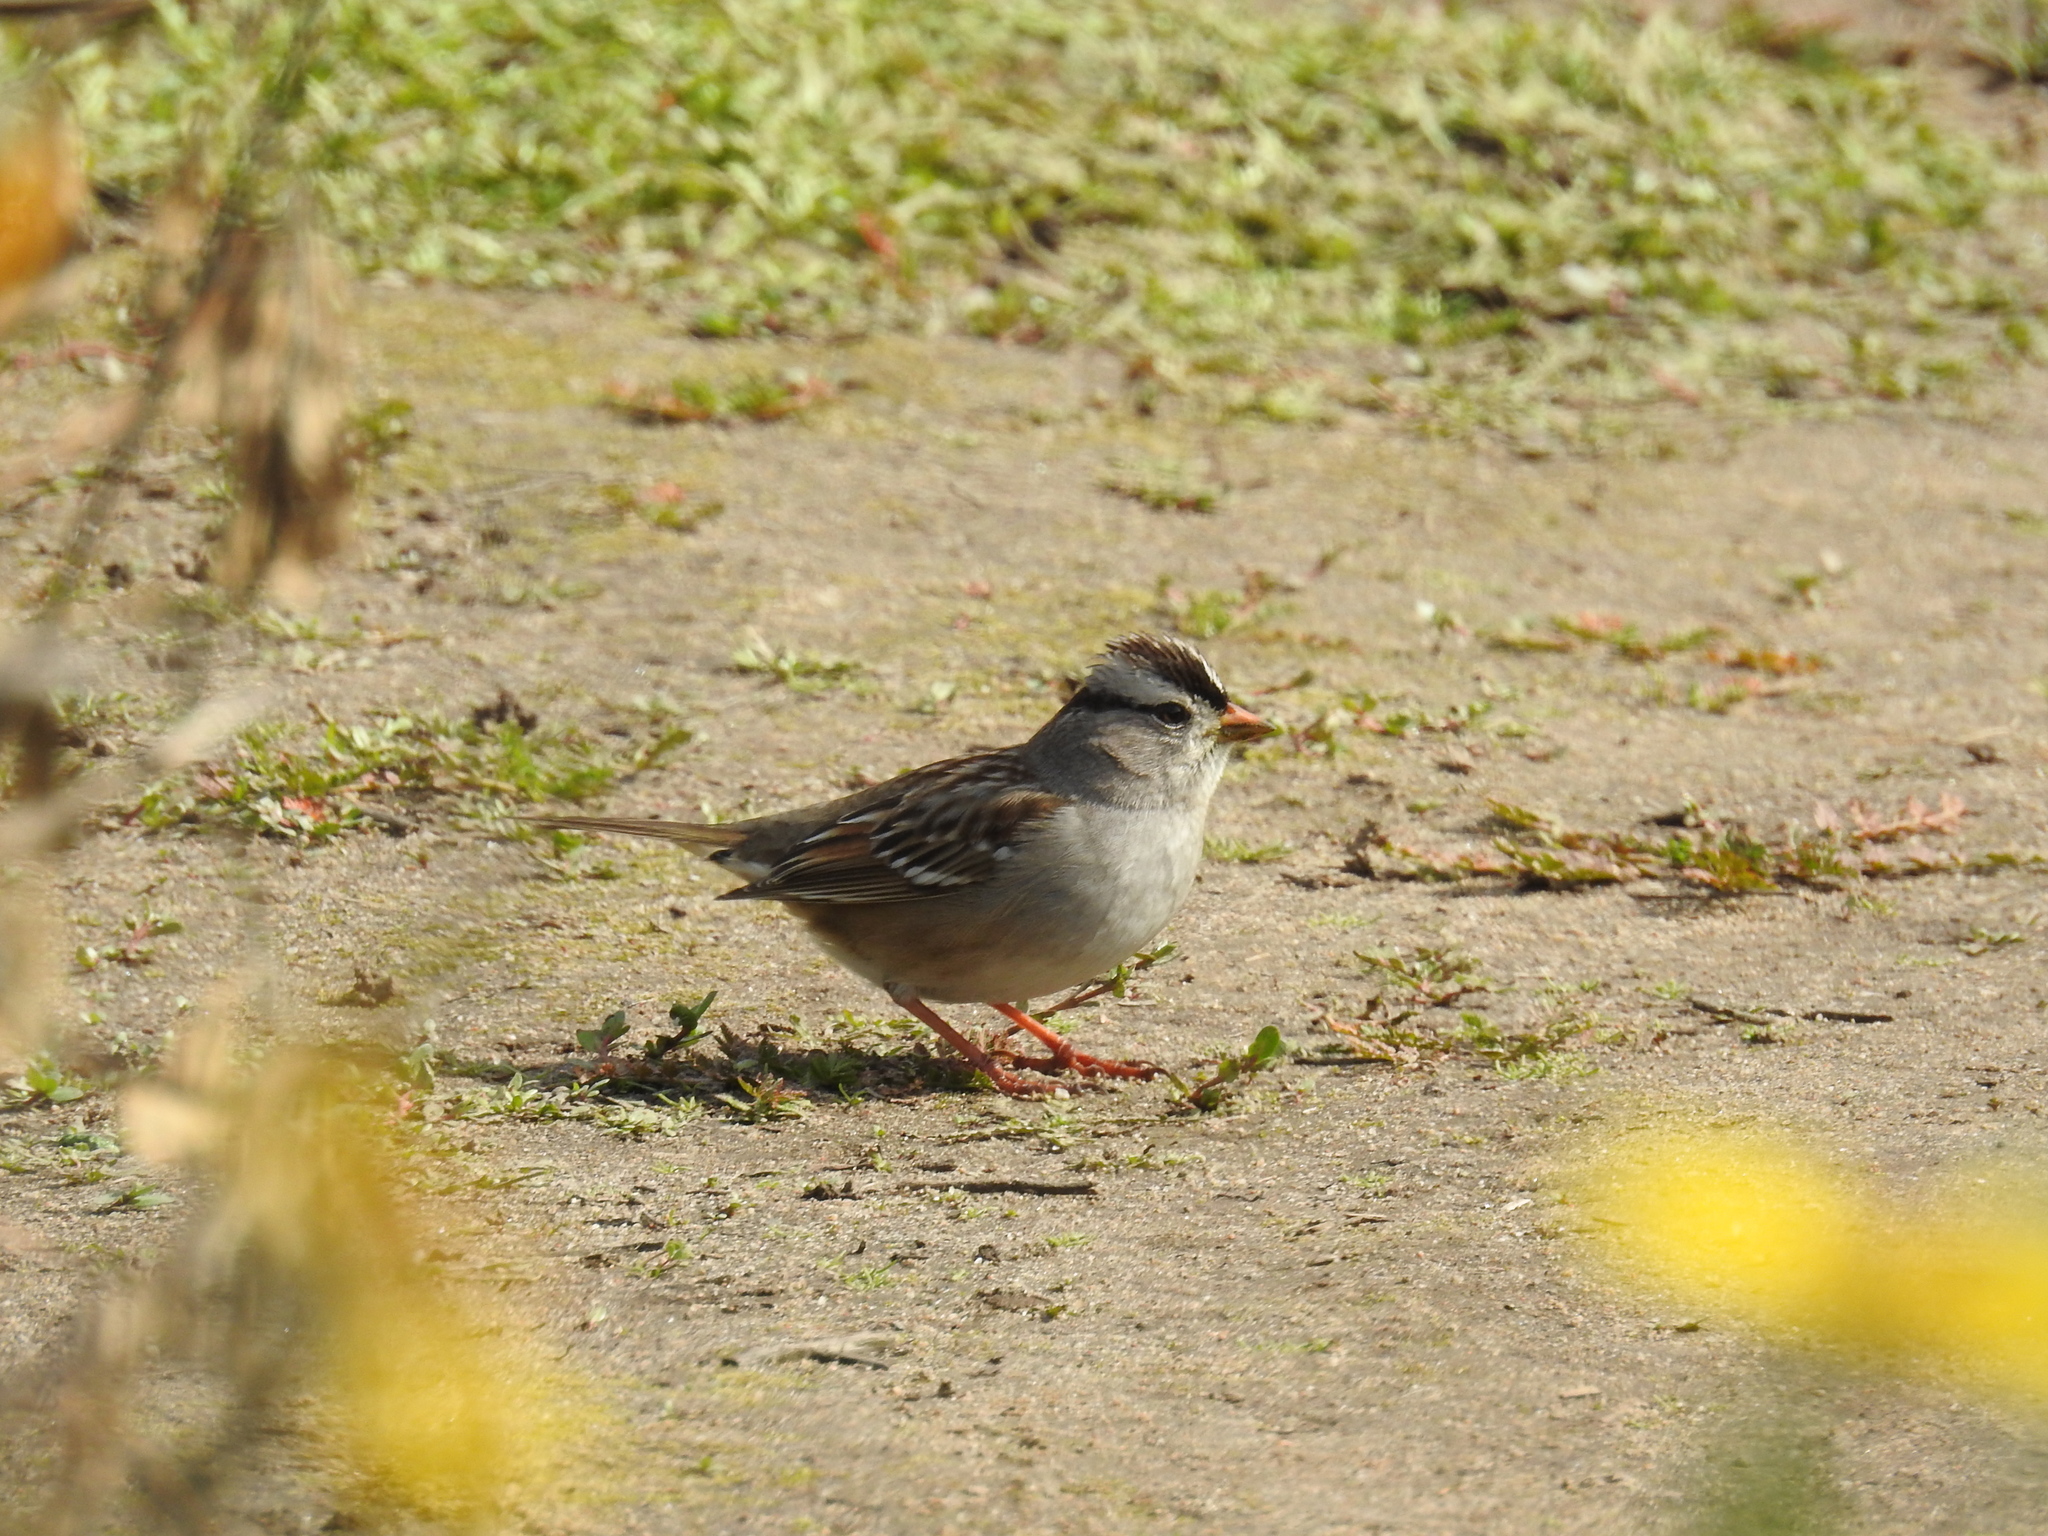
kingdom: Animalia
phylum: Chordata
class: Aves
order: Passeriformes
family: Passerellidae
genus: Zonotrichia
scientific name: Zonotrichia leucophrys
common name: White-crowned sparrow
